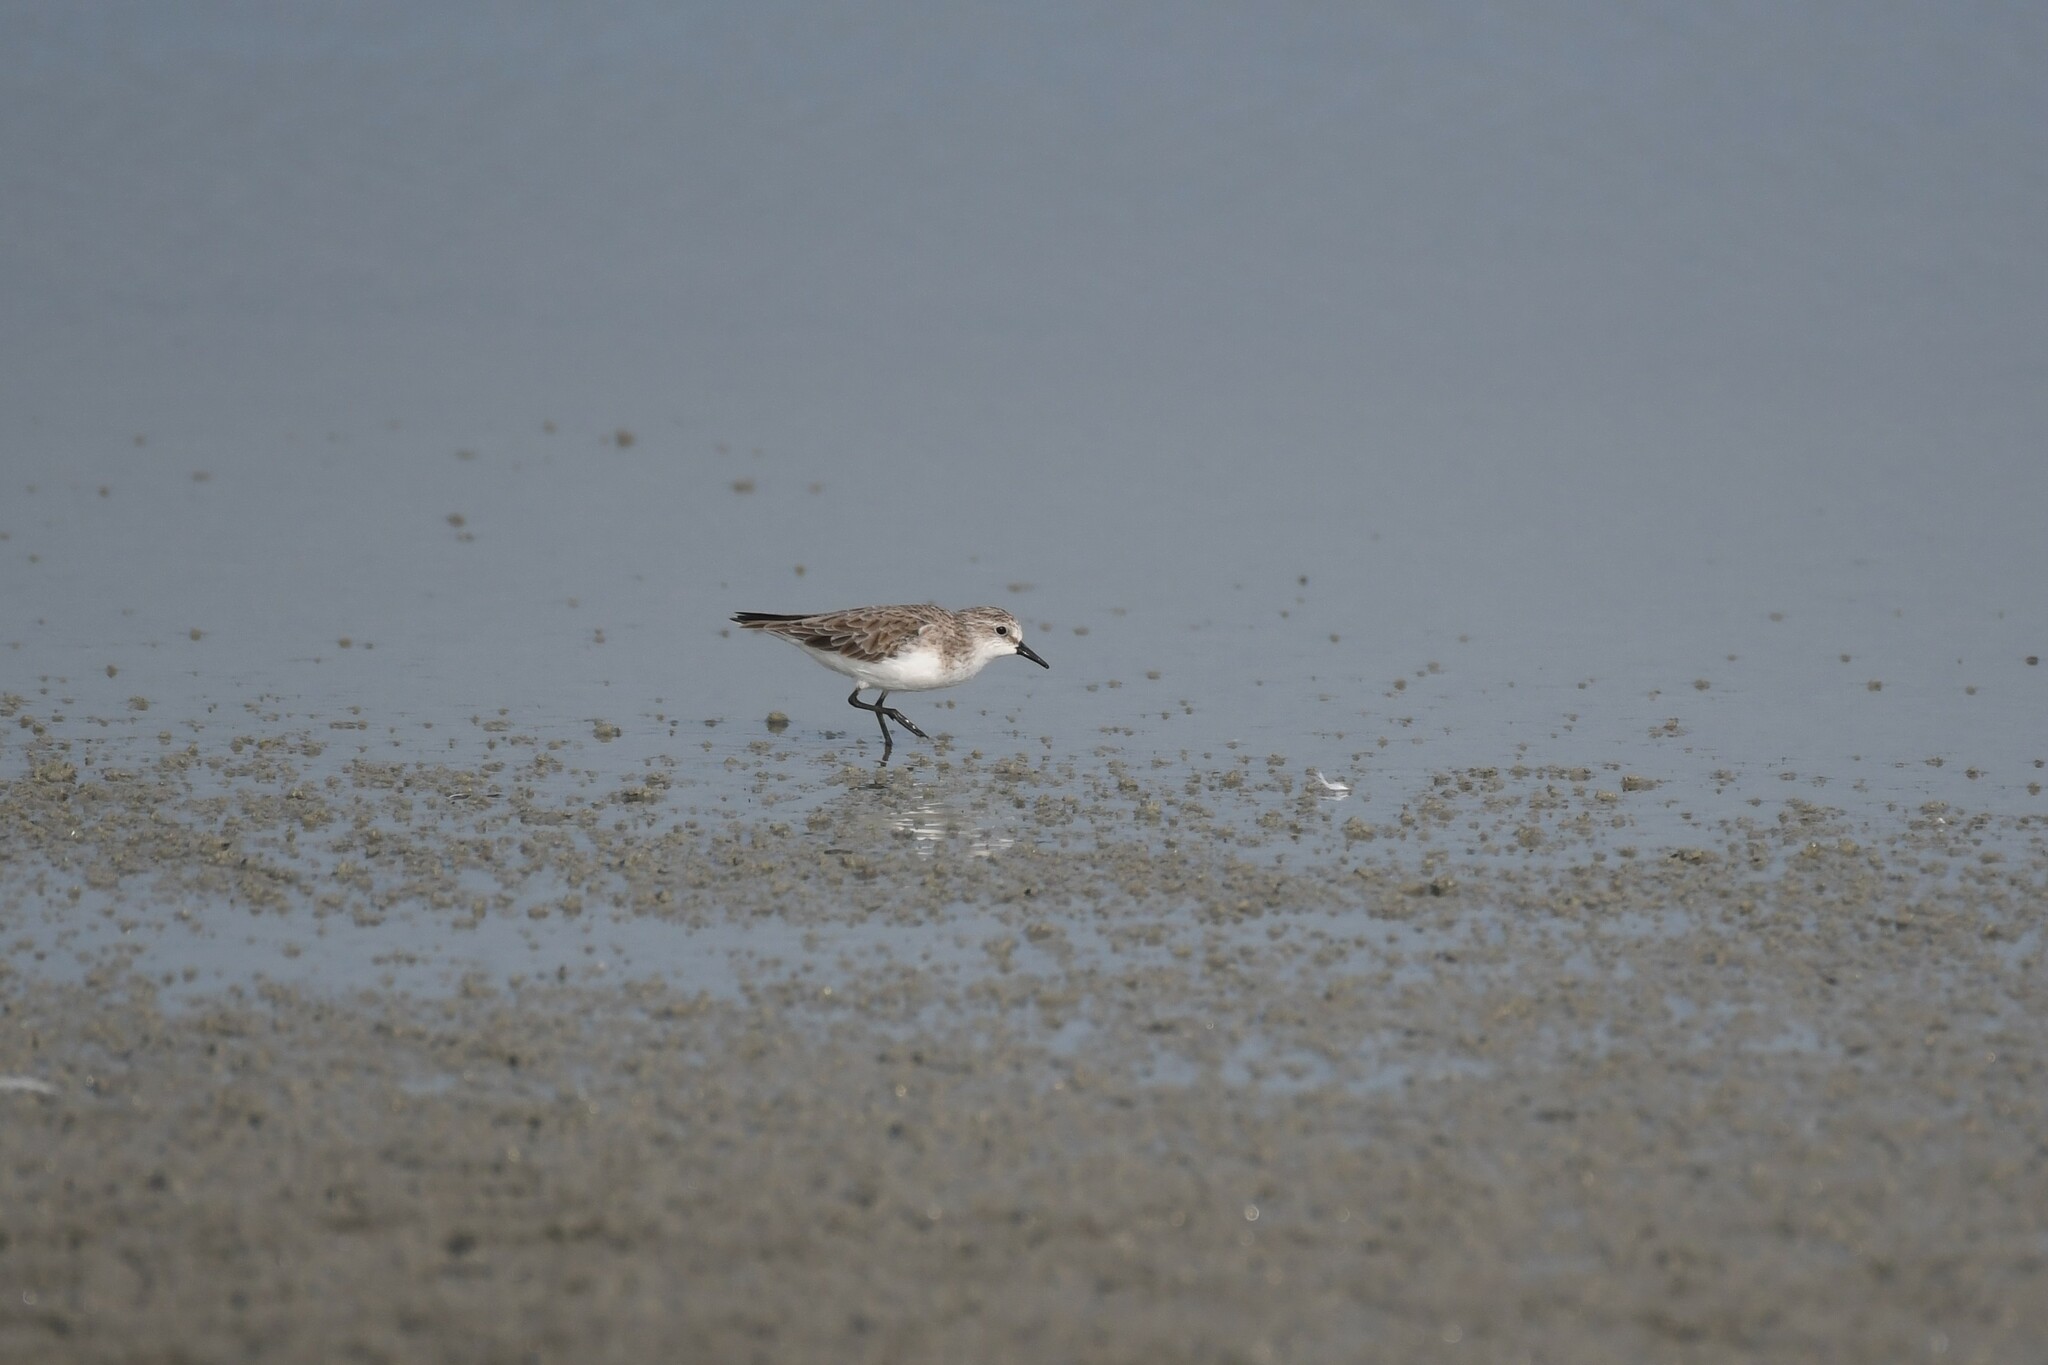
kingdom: Animalia
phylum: Chordata
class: Aves
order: Charadriiformes
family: Scolopacidae
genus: Calidris
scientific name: Calidris ruficollis
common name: Red-necked stint
